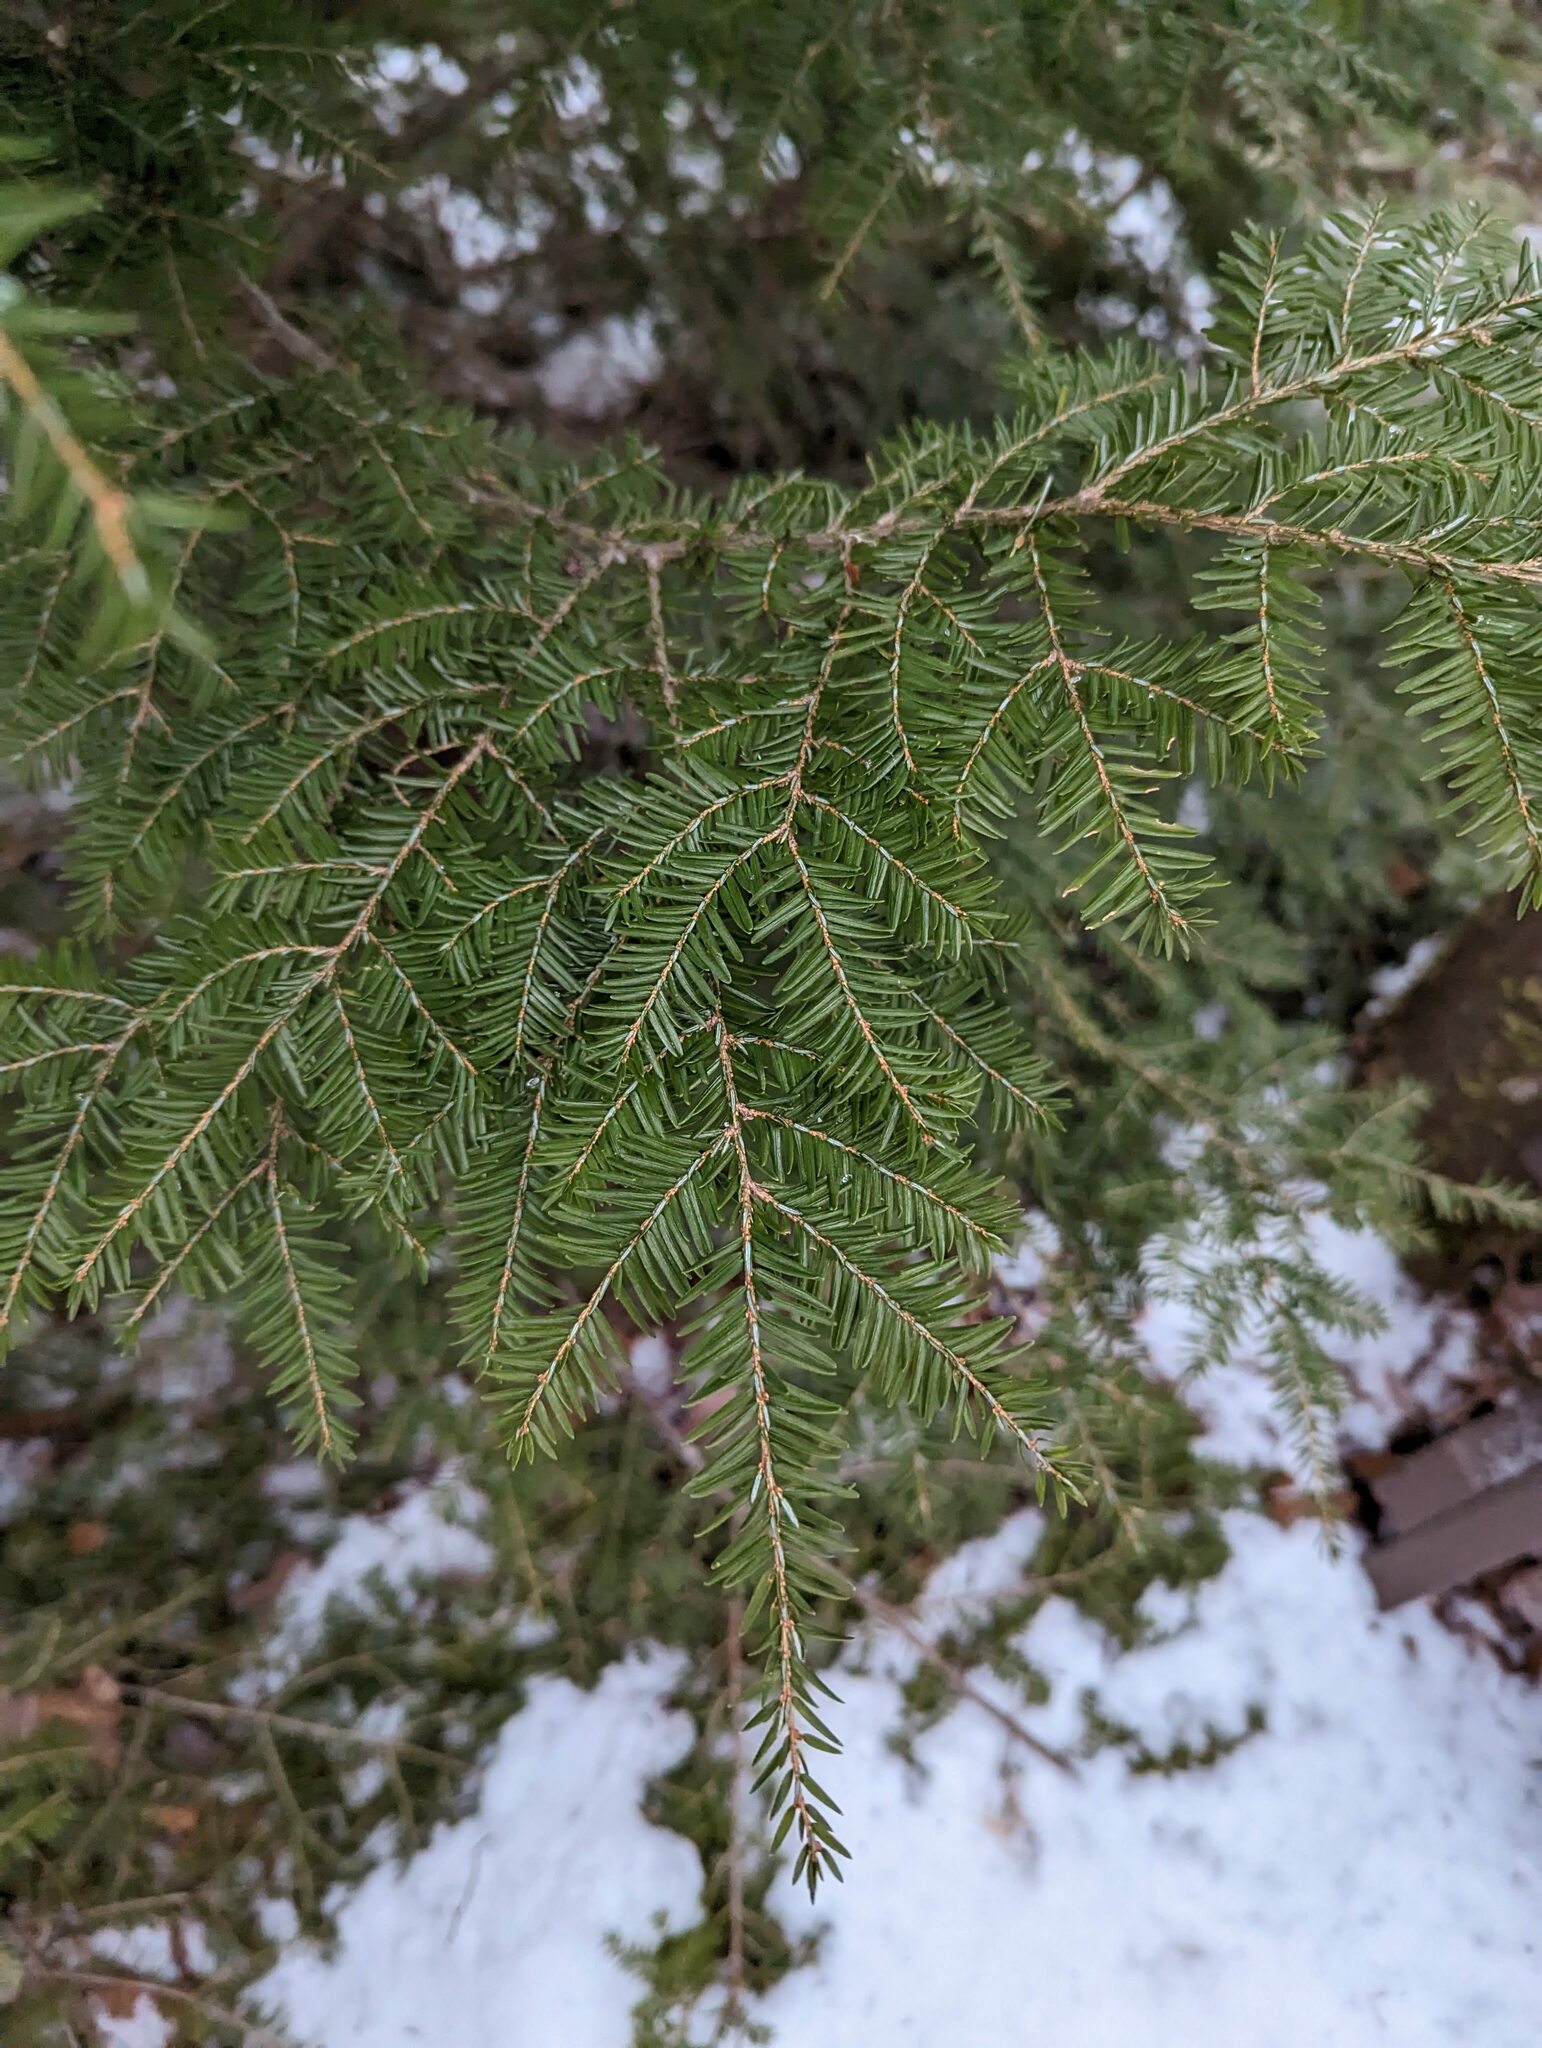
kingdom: Plantae
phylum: Tracheophyta
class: Pinopsida
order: Pinales
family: Pinaceae
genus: Tsuga
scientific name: Tsuga canadensis
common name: Eastern hemlock
